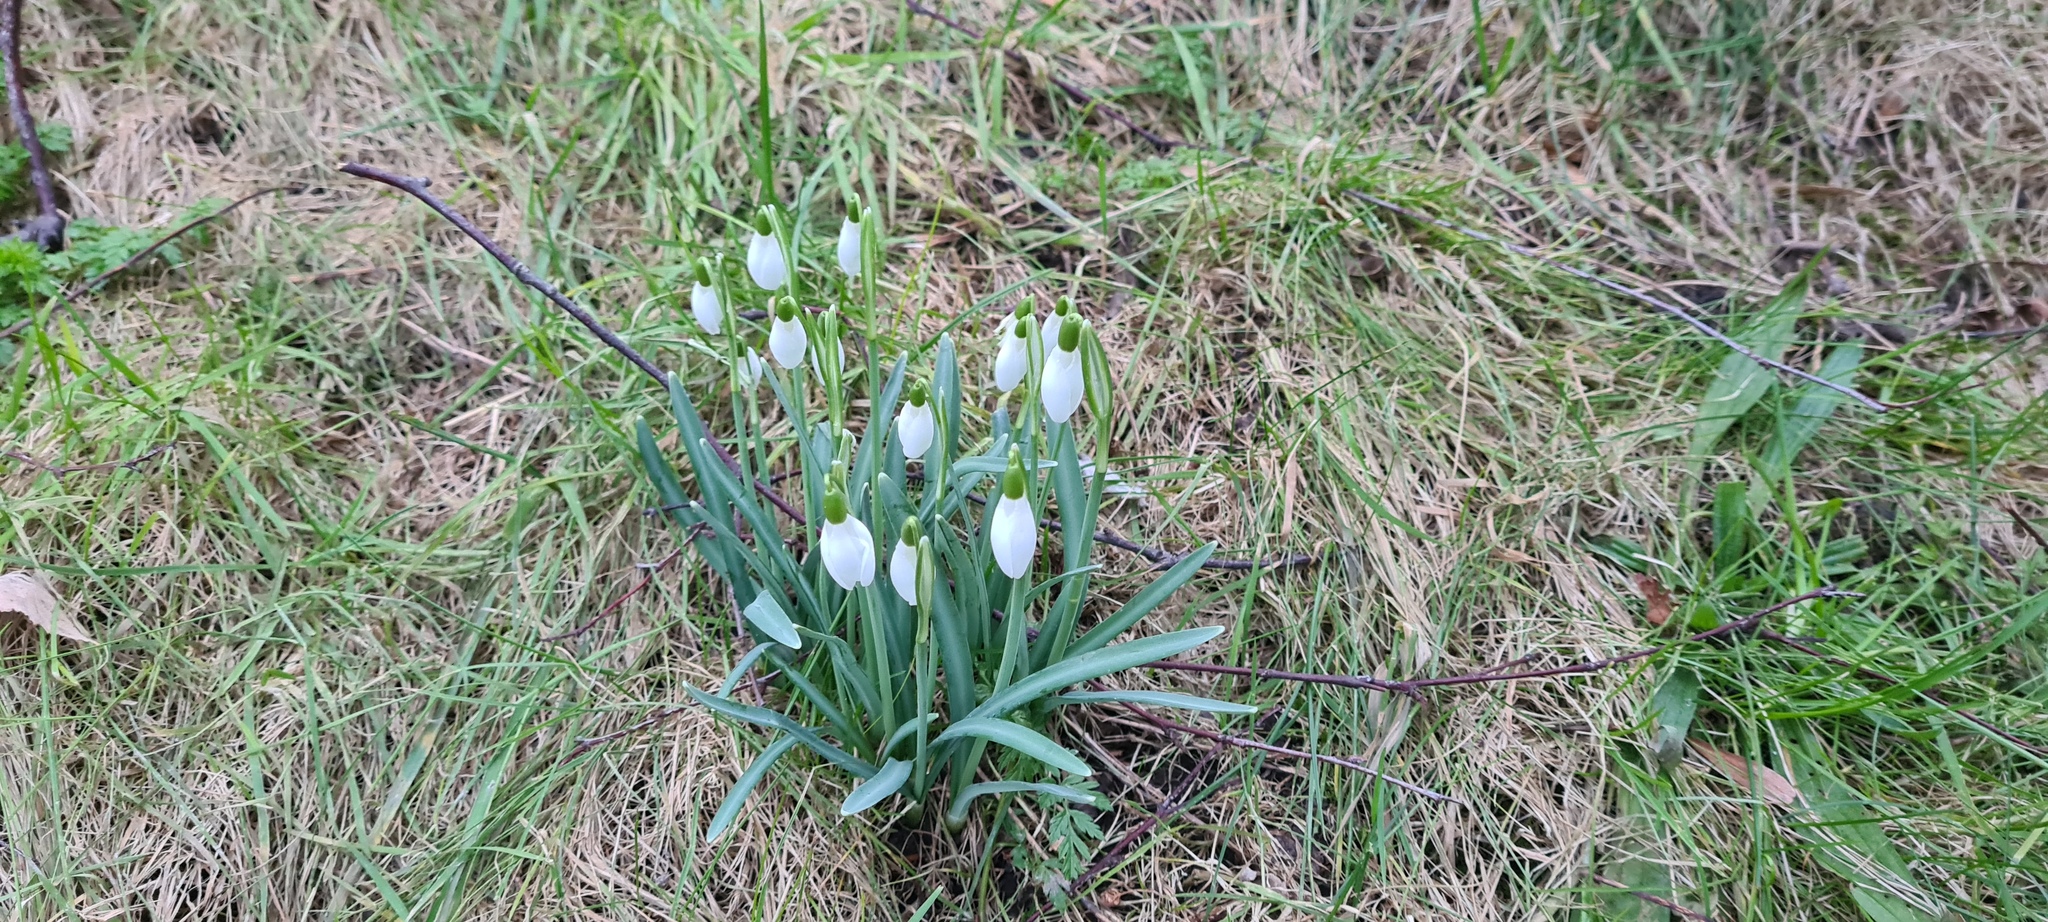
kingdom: Plantae
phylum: Tracheophyta
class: Liliopsida
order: Asparagales
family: Amaryllidaceae
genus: Galanthus
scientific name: Galanthus nivalis
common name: Snowdrop
